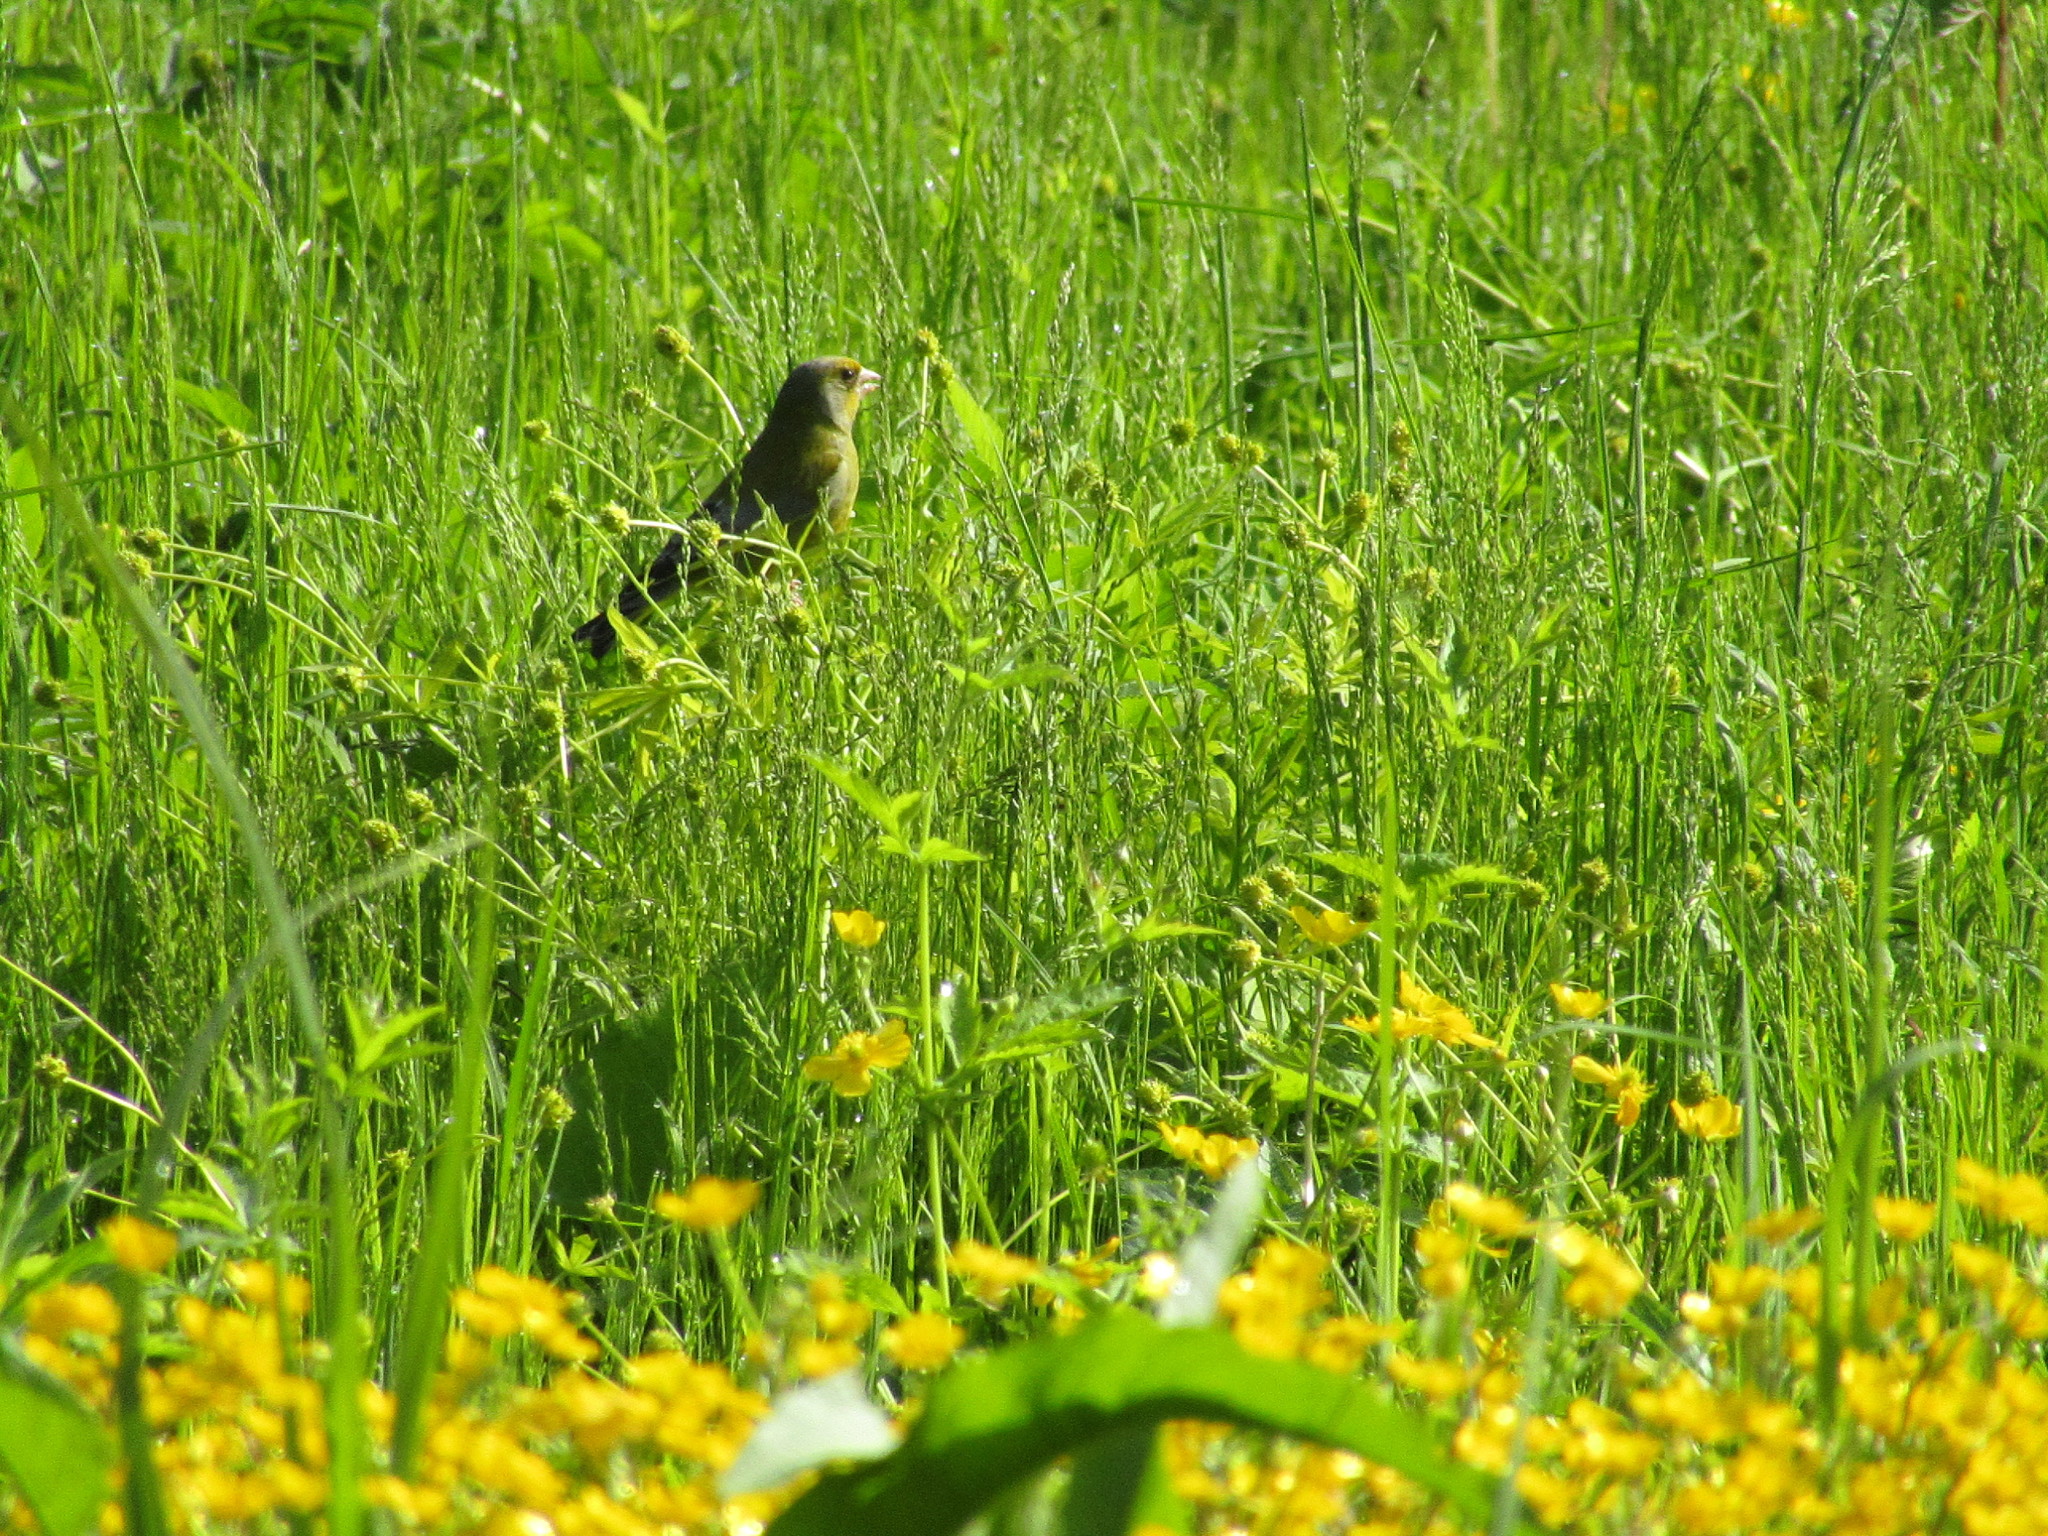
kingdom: Plantae
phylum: Tracheophyta
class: Liliopsida
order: Poales
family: Poaceae
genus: Chloris
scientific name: Chloris chloris
